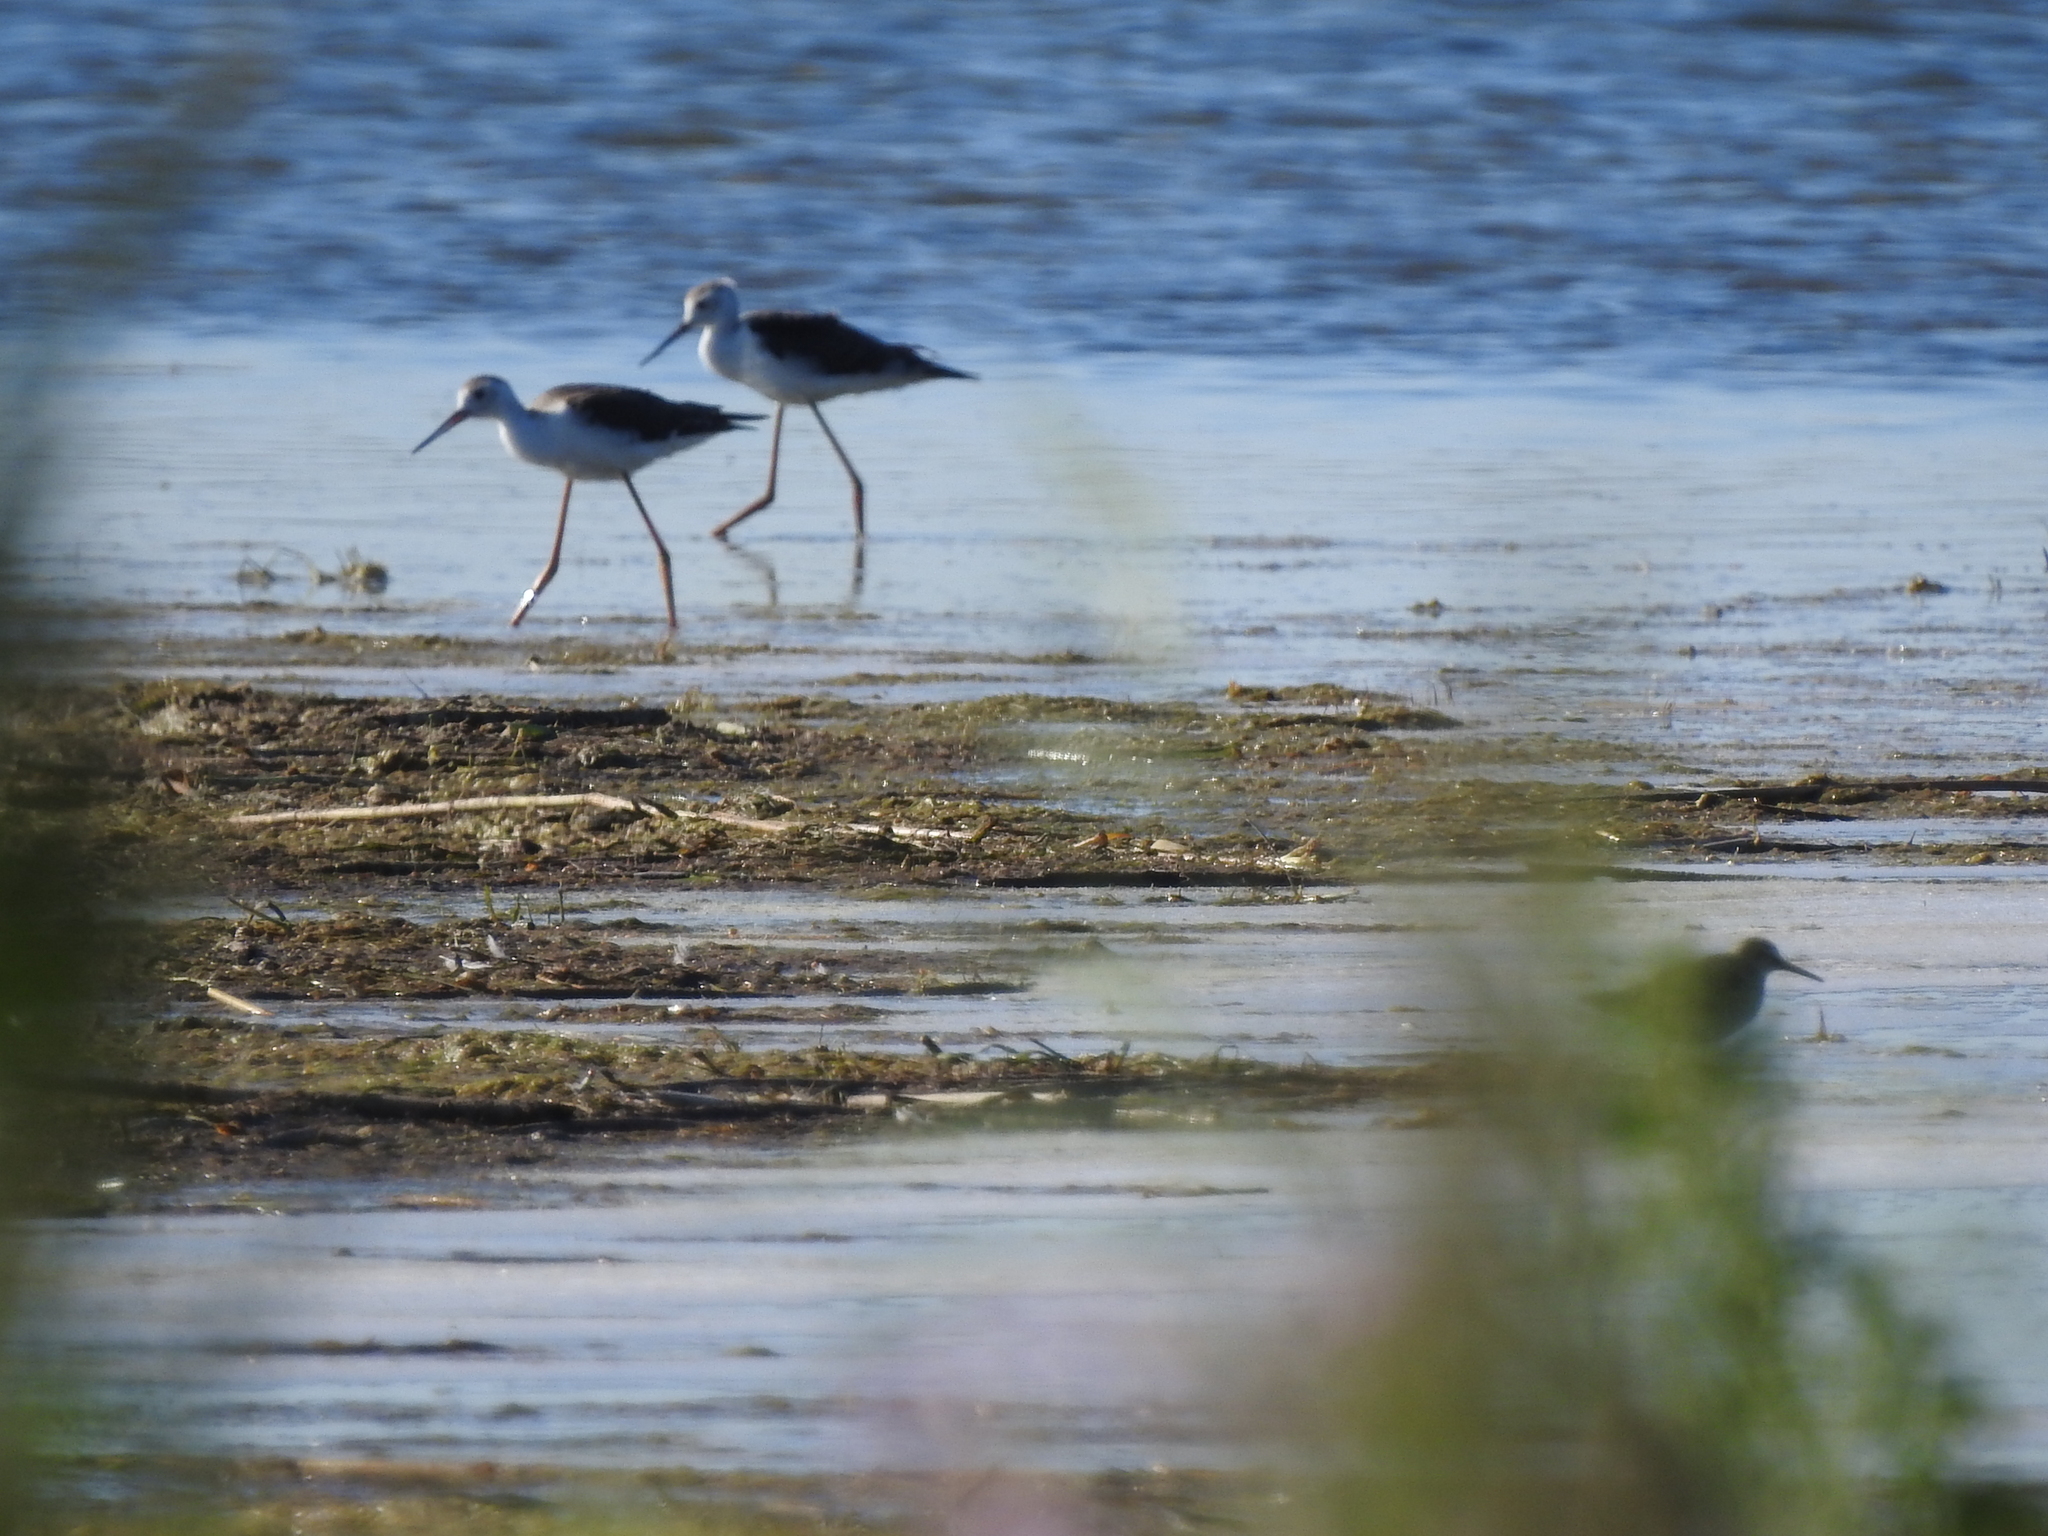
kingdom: Animalia
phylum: Chordata
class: Aves
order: Charadriiformes
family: Recurvirostridae
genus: Himantopus
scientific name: Himantopus himantopus
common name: Black-winged stilt
